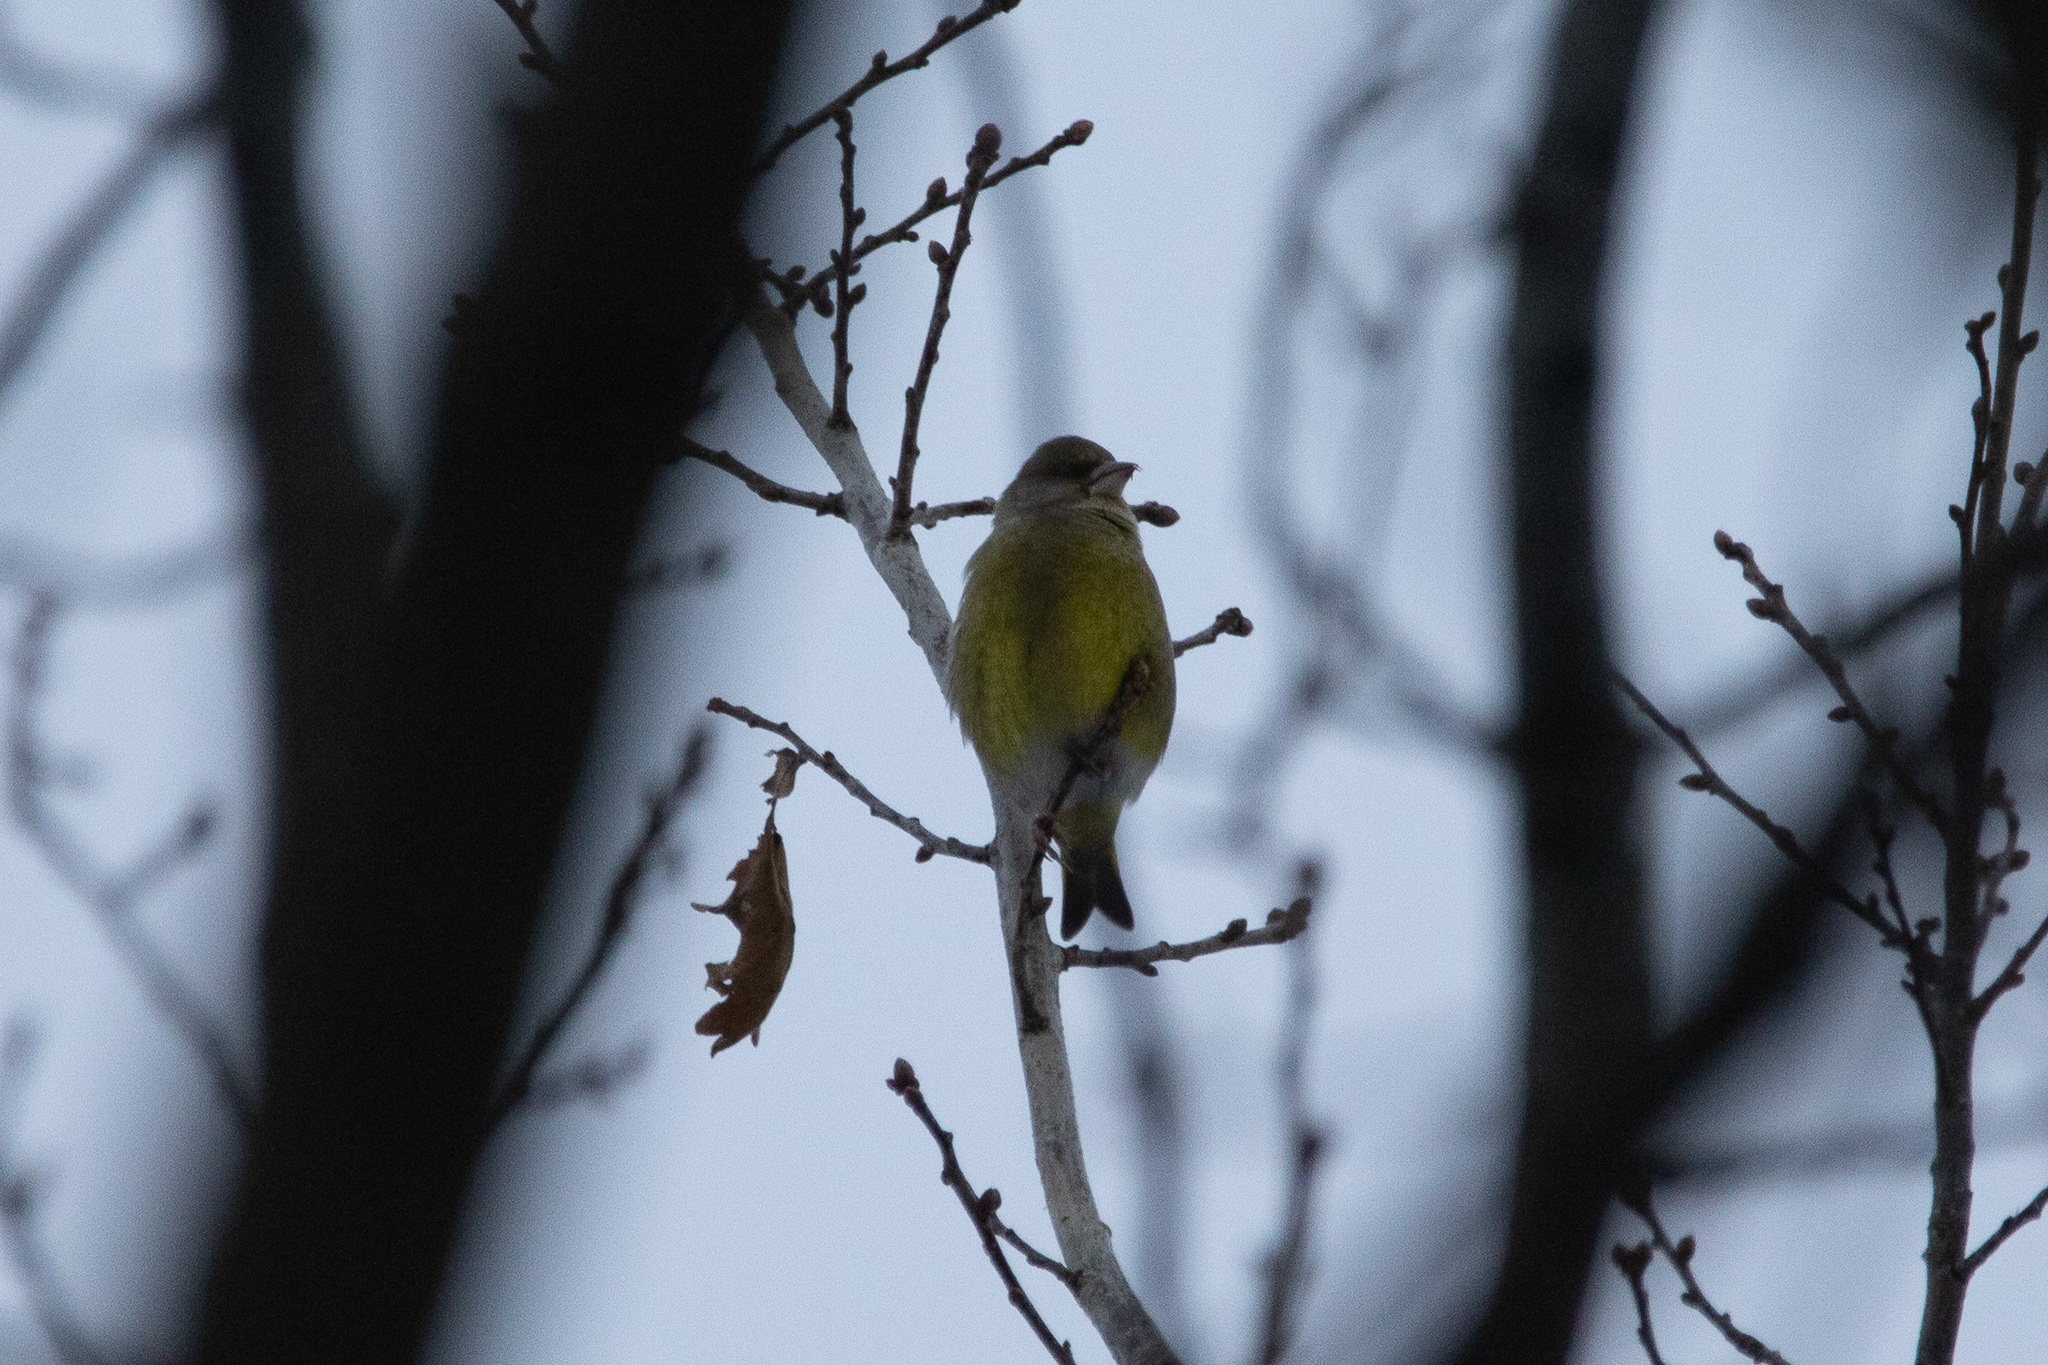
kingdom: Plantae
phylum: Tracheophyta
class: Liliopsida
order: Poales
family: Poaceae
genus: Chloris
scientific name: Chloris chloris
